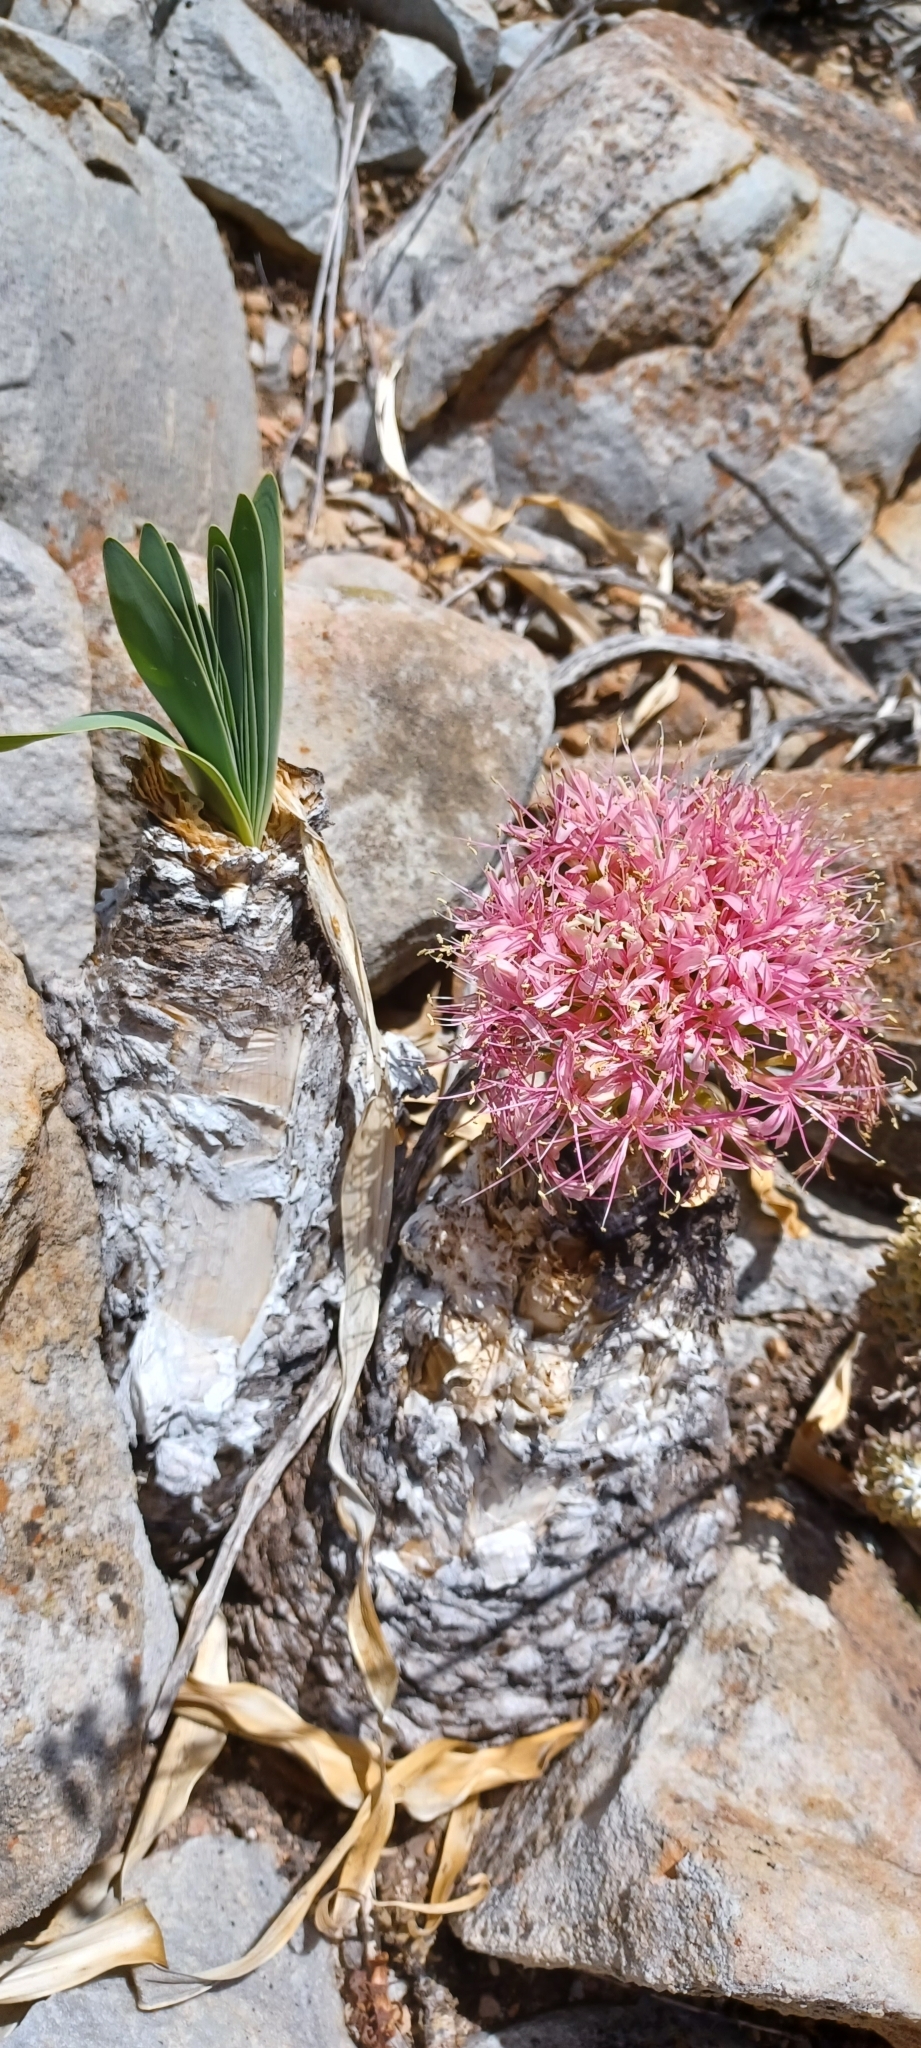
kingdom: Plantae
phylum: Tracheophyta
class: Liliopsida
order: Asparagales
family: Amaryllidaceae
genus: Boophone
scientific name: Boophone disticha
